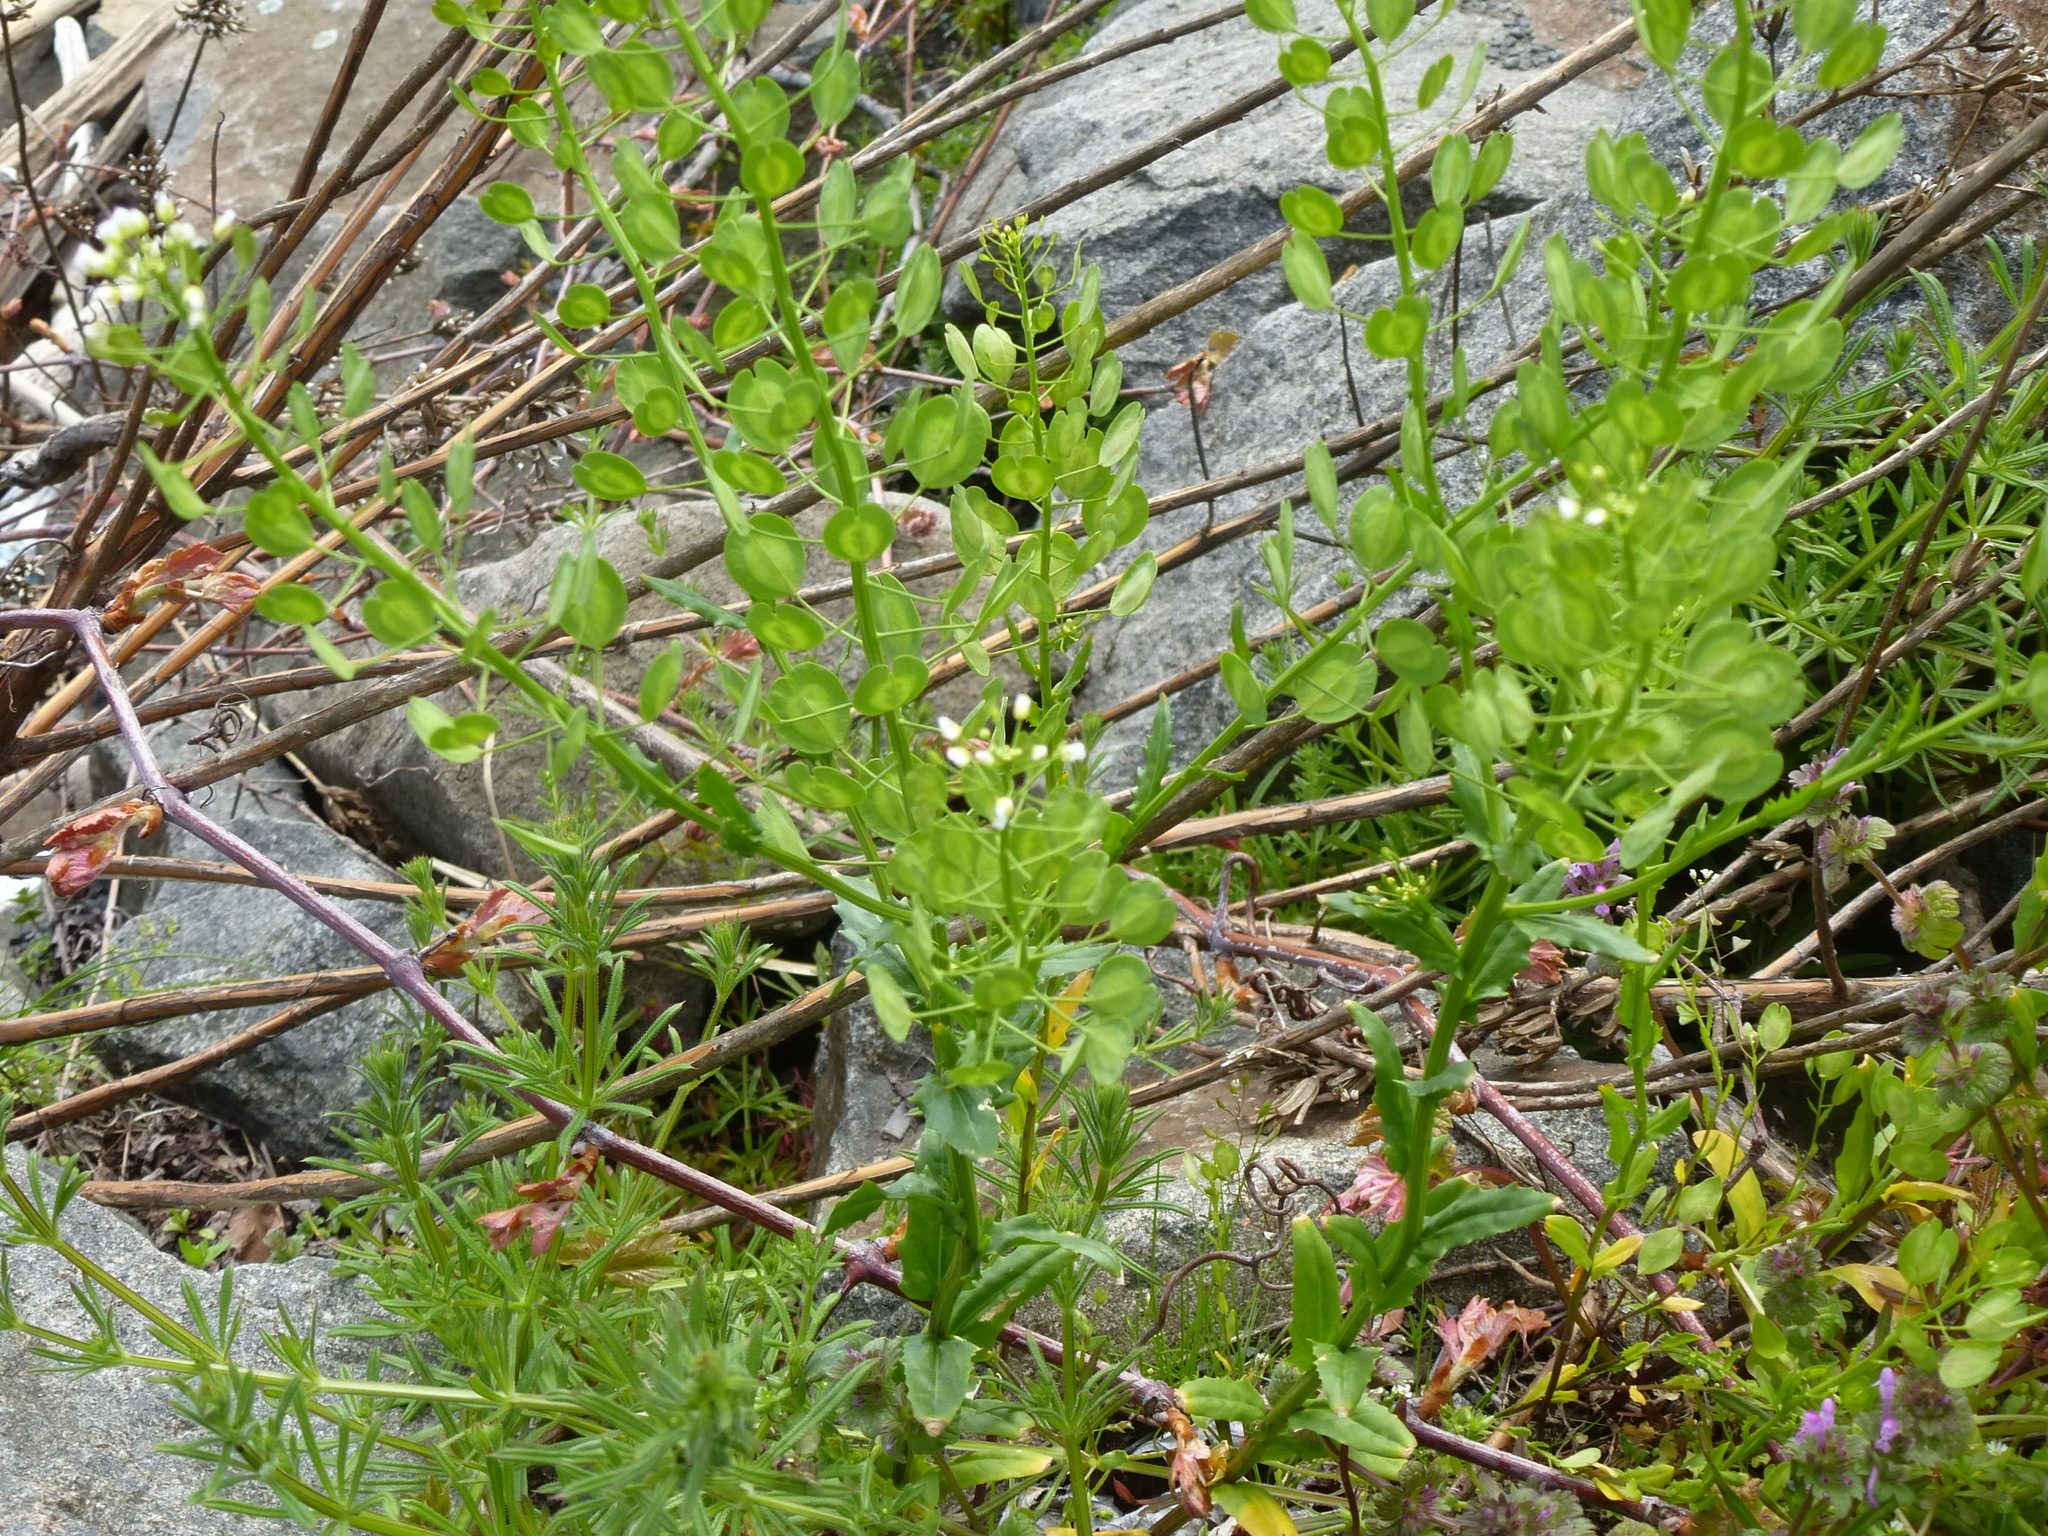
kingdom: Plantae
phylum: Tracheophyta
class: Magnoliopsida
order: Brassicales
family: Brassicaceae
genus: Thlaspi
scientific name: Thlaspi arvense
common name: Field pennycress
